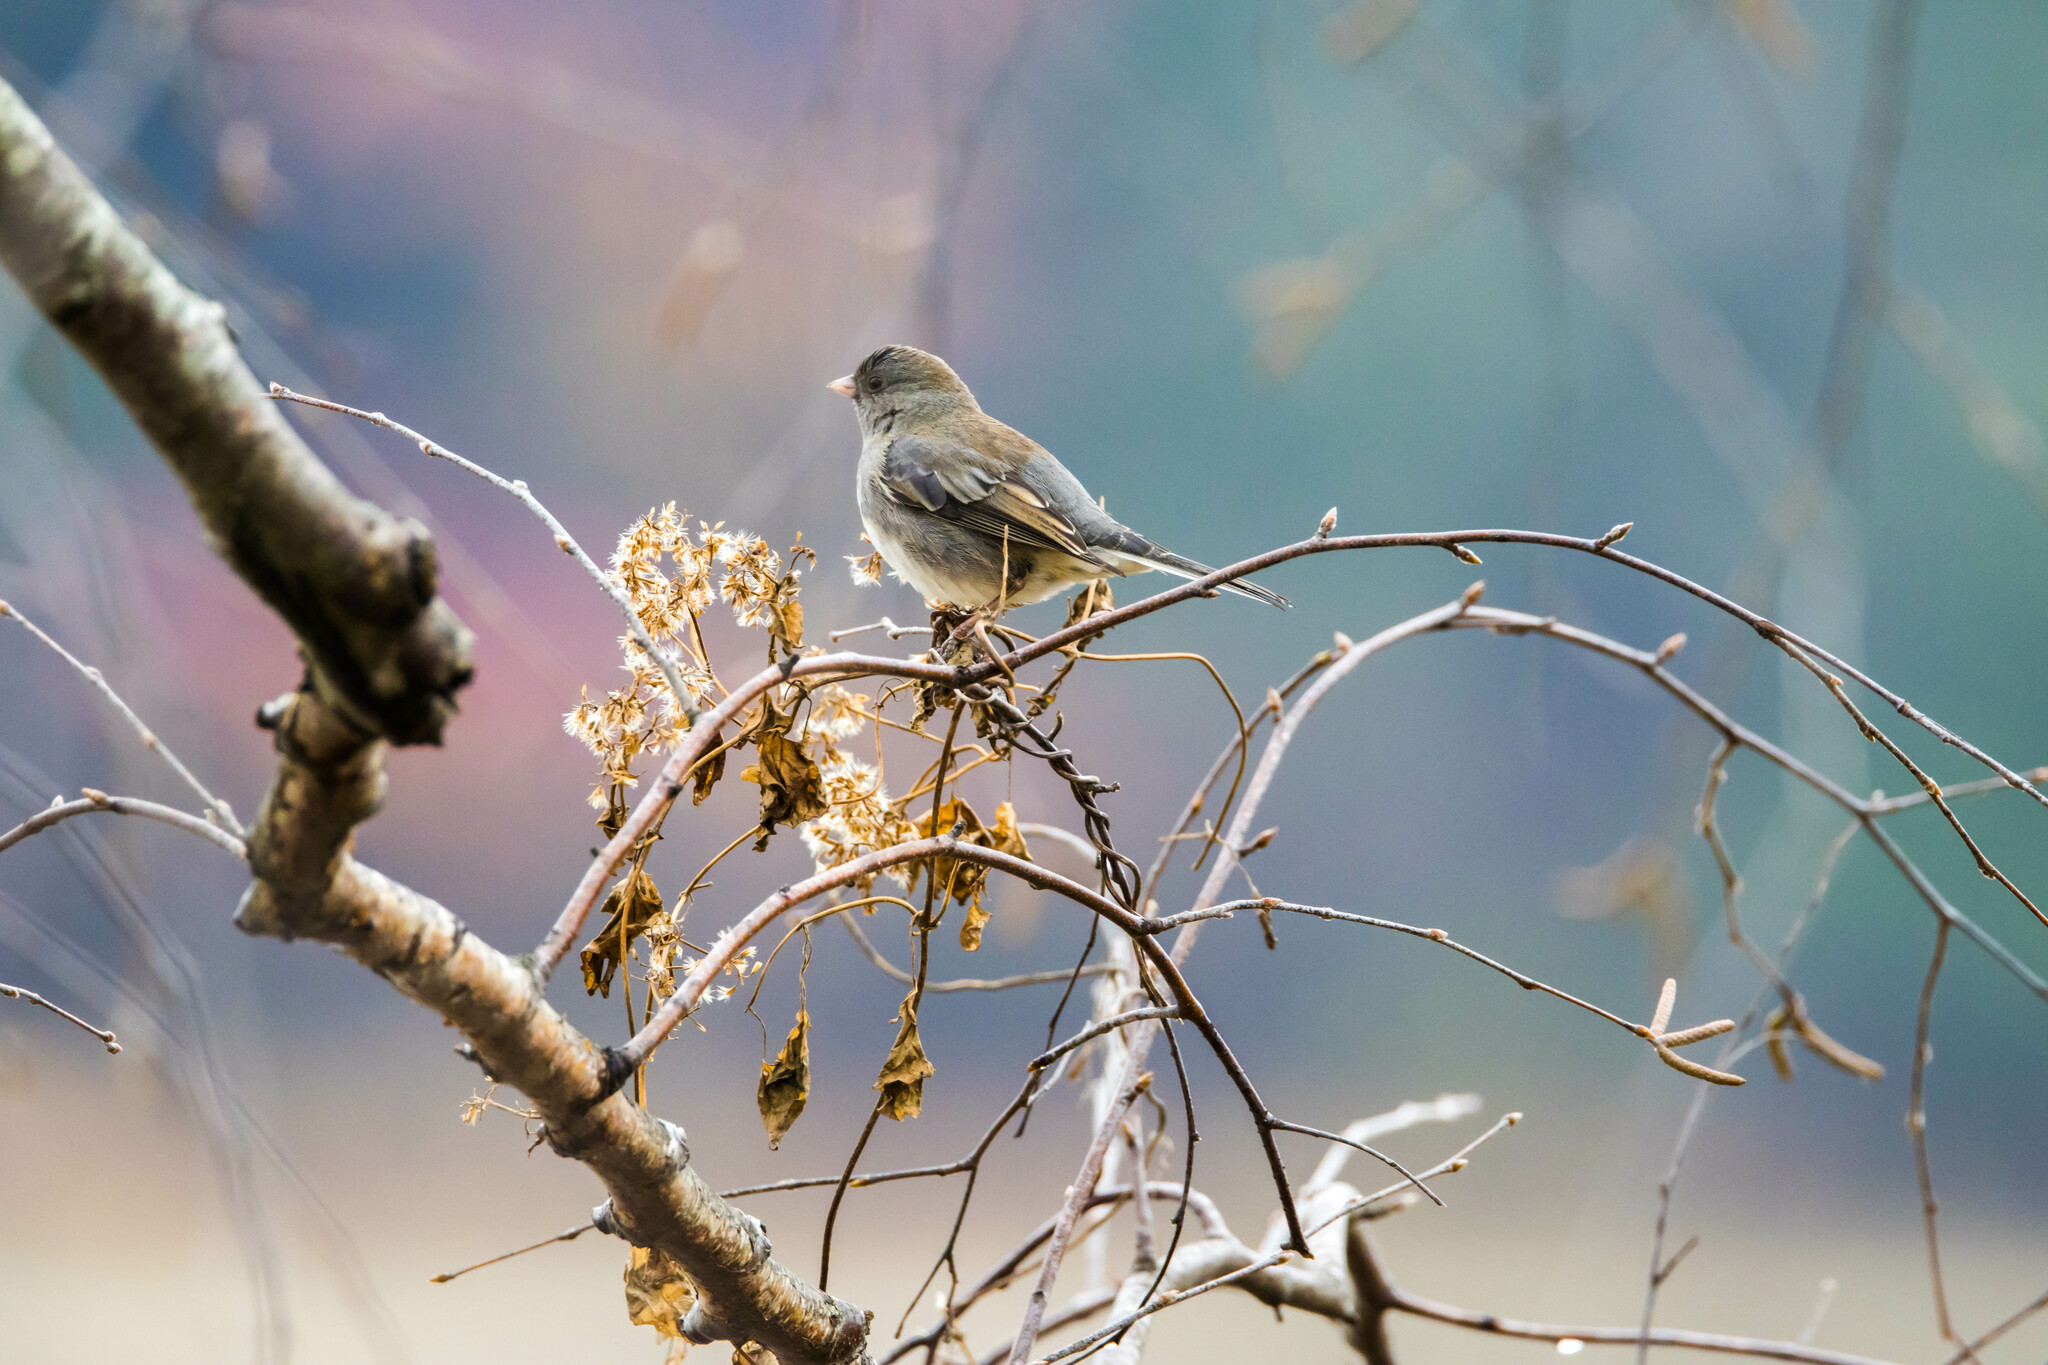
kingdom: Animalia
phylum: Chordata
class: Aves
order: Passeriformes
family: Passerellidae
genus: Junco
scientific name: Junco hyemalis
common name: Dark-eyed junco
